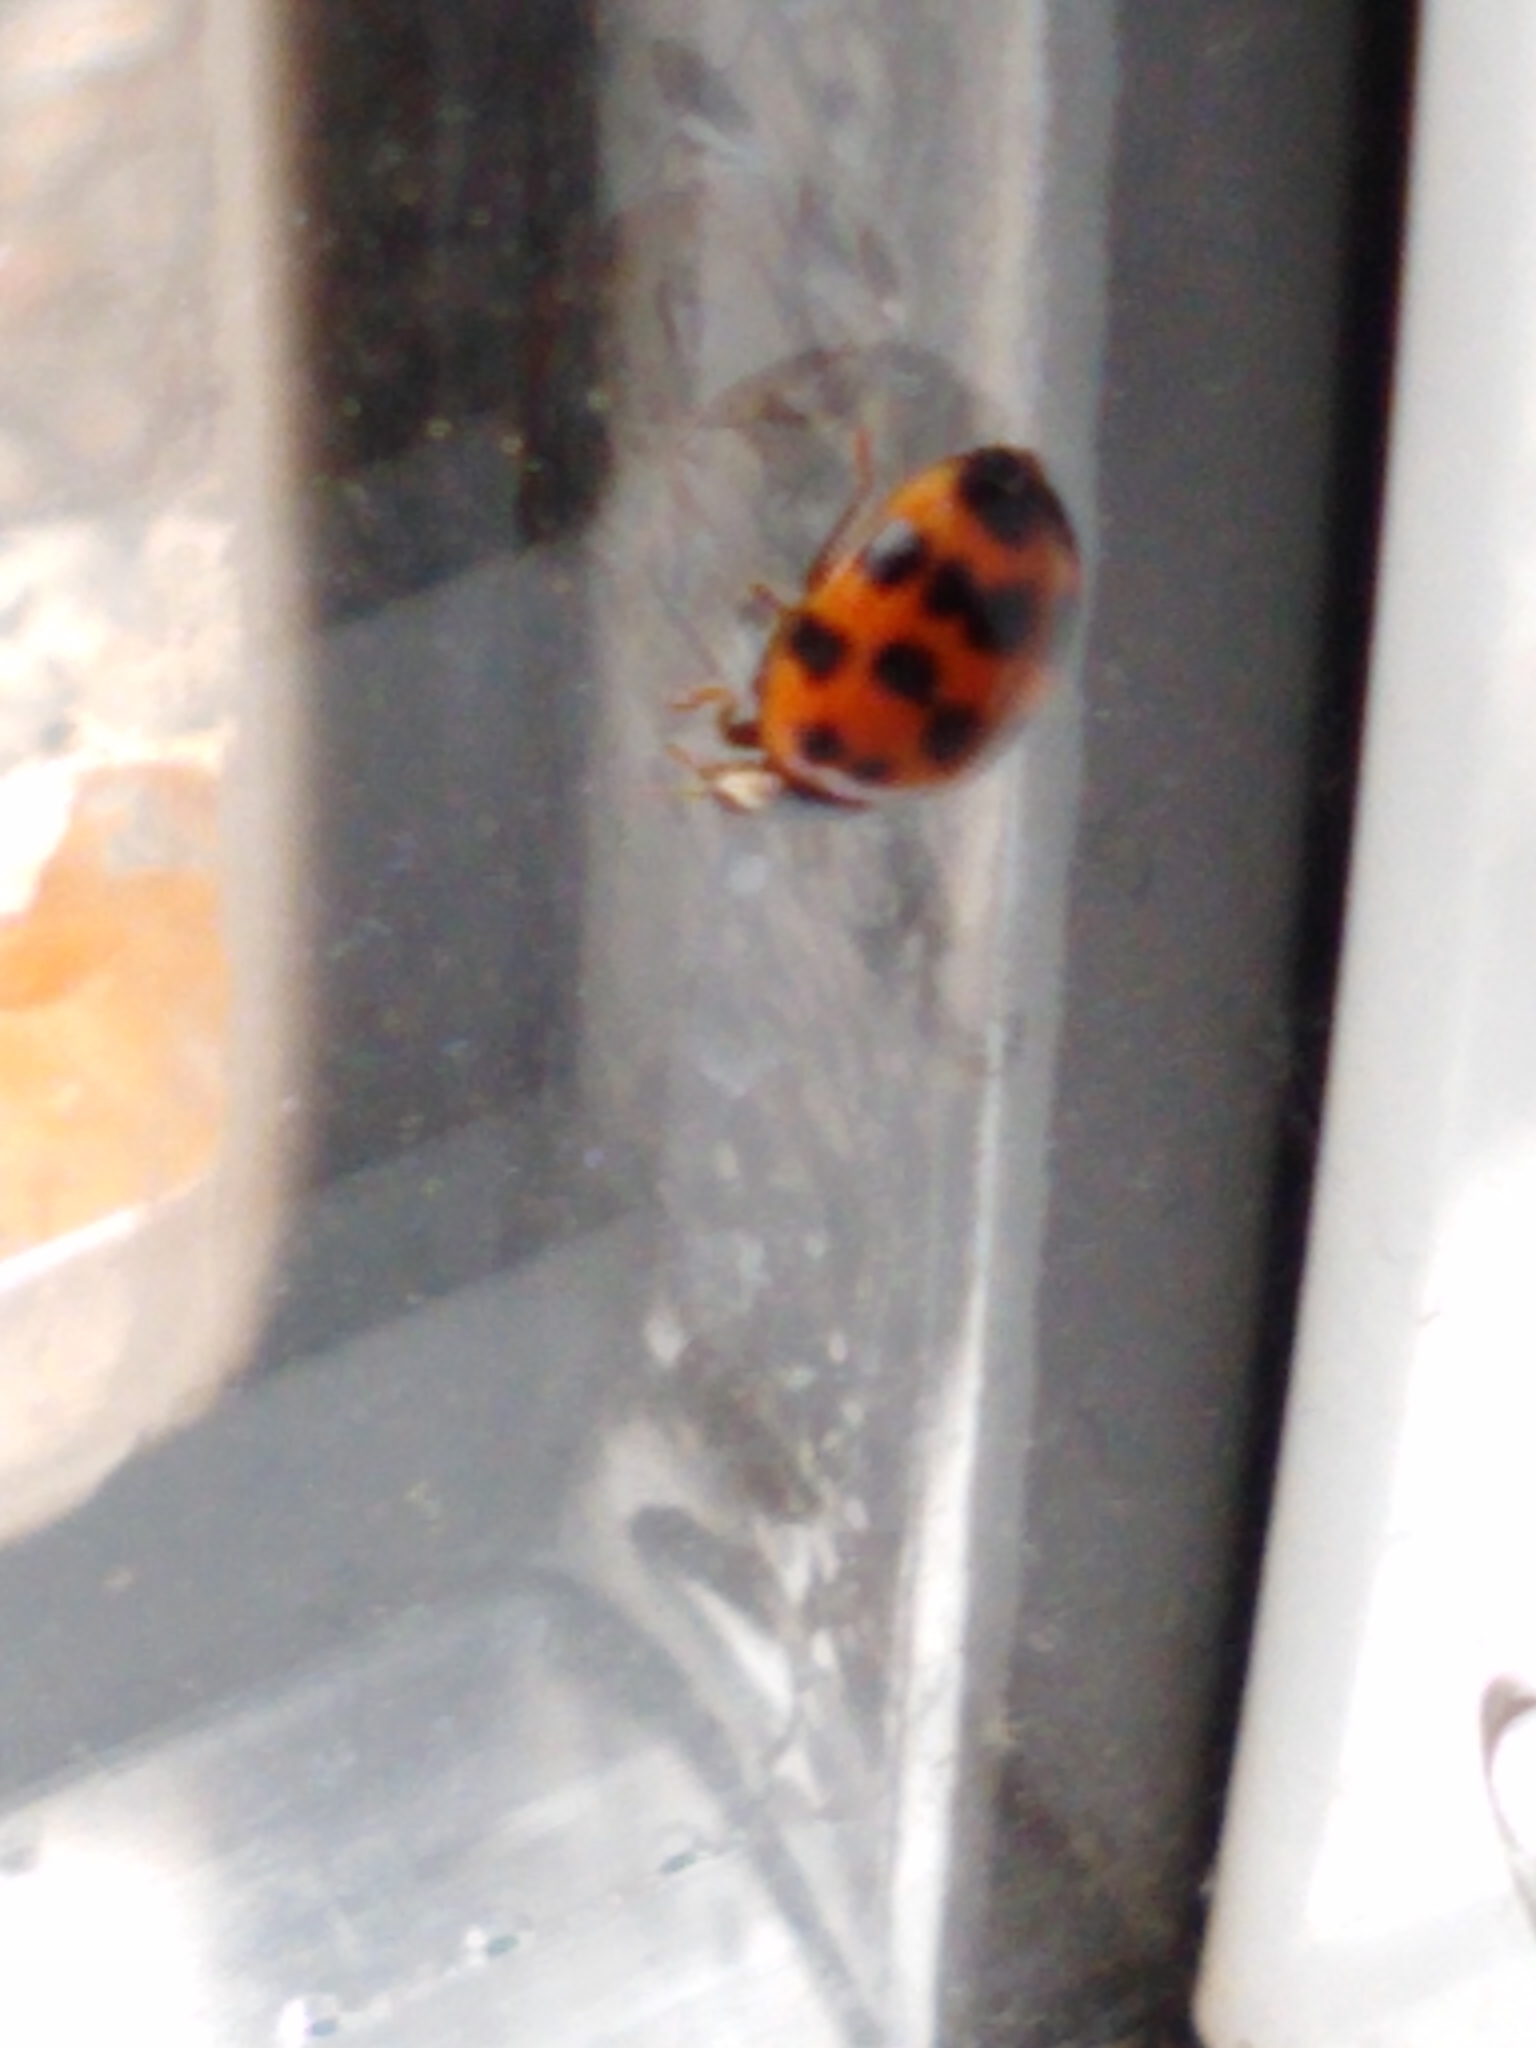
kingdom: Animalia
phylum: Arthropoda
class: Insecta
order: Coleoptera
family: Coccinellidae
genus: Harmonia
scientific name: Harmonia axyridis
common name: Harlequin ladybird
